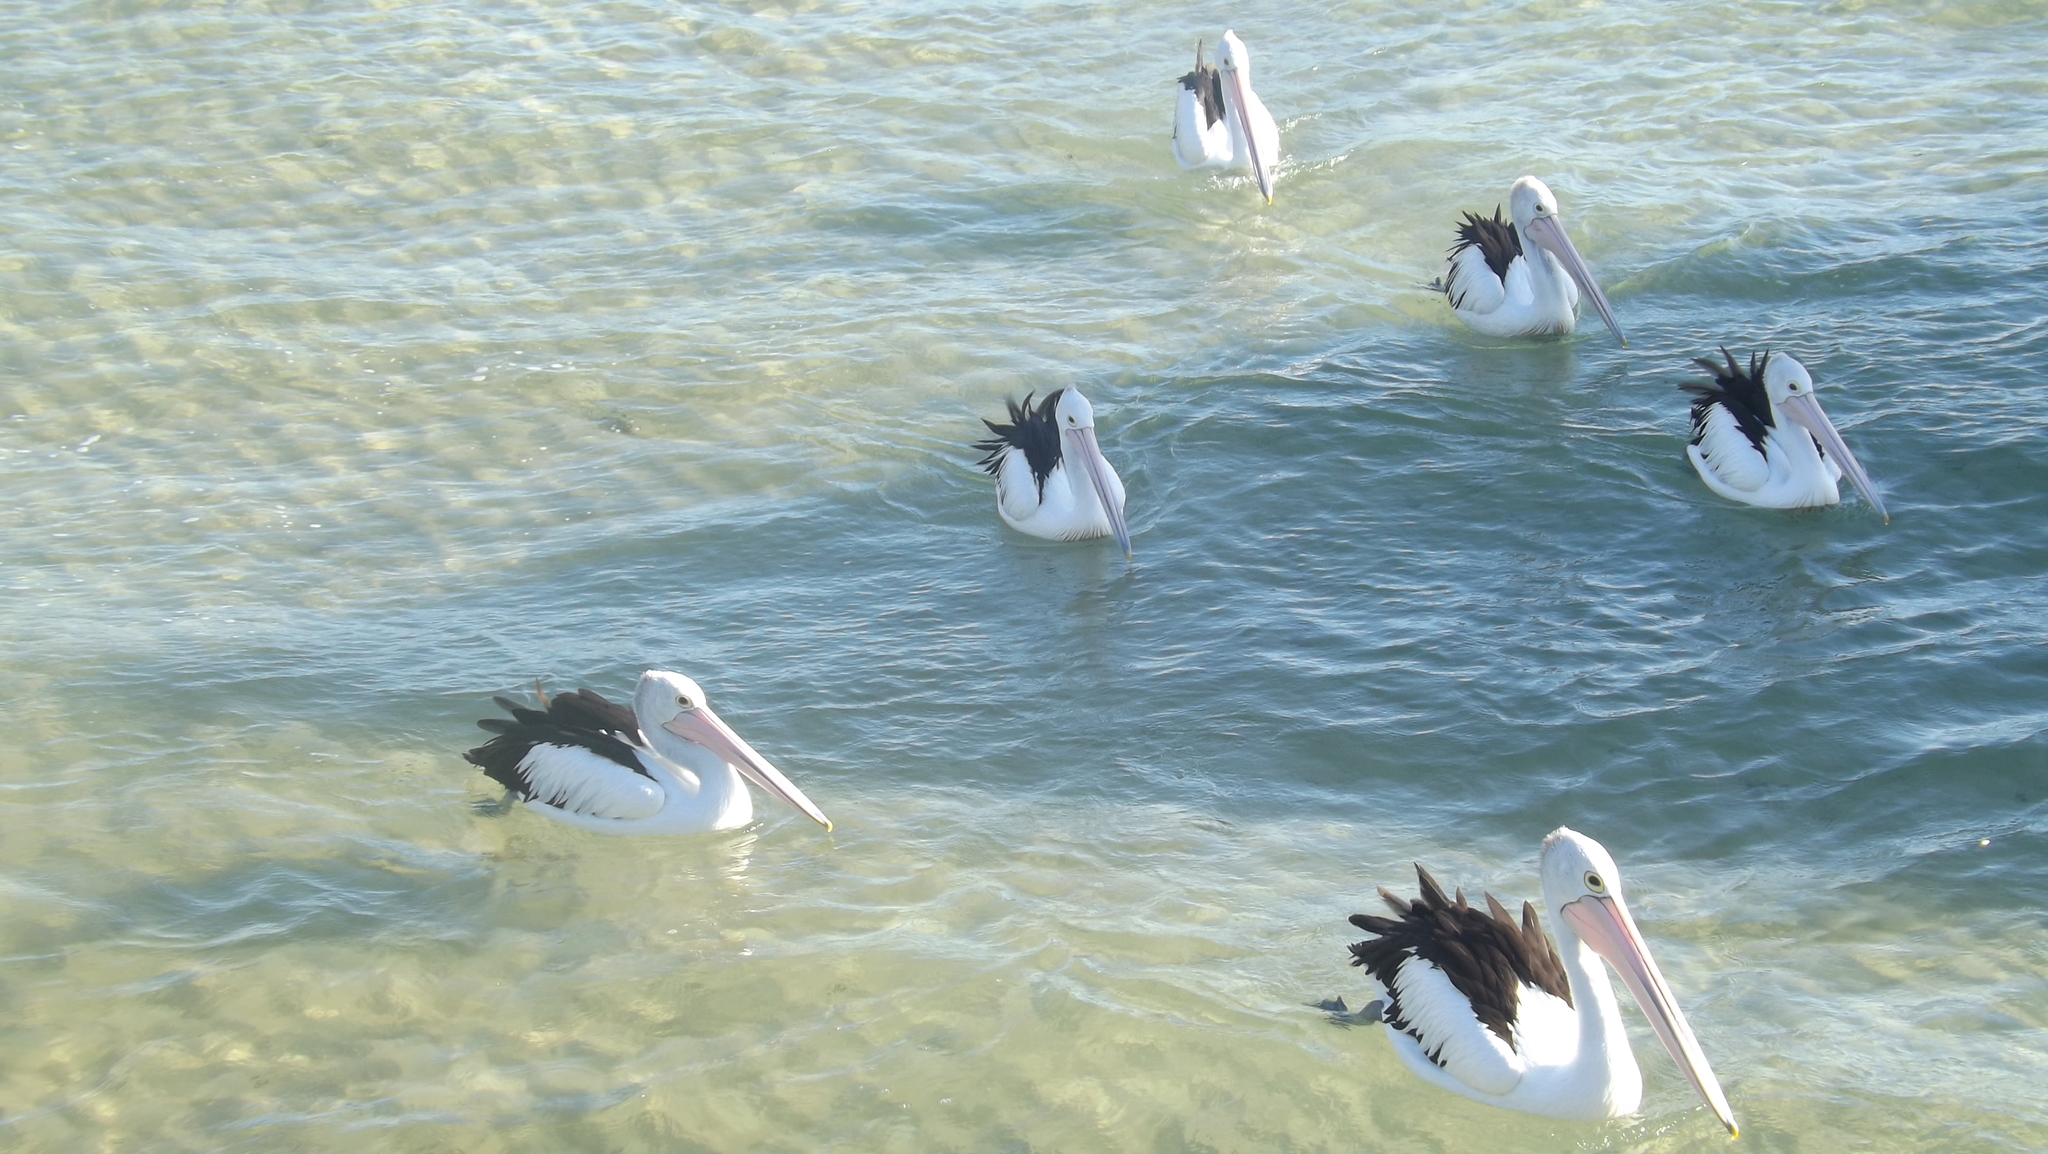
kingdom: Animalia
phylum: Chordata
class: Aves
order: Pelecaniformes
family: Pelecanidae
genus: Pelecanus
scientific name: Pelecanus conspicillatus
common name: Australian pelican
